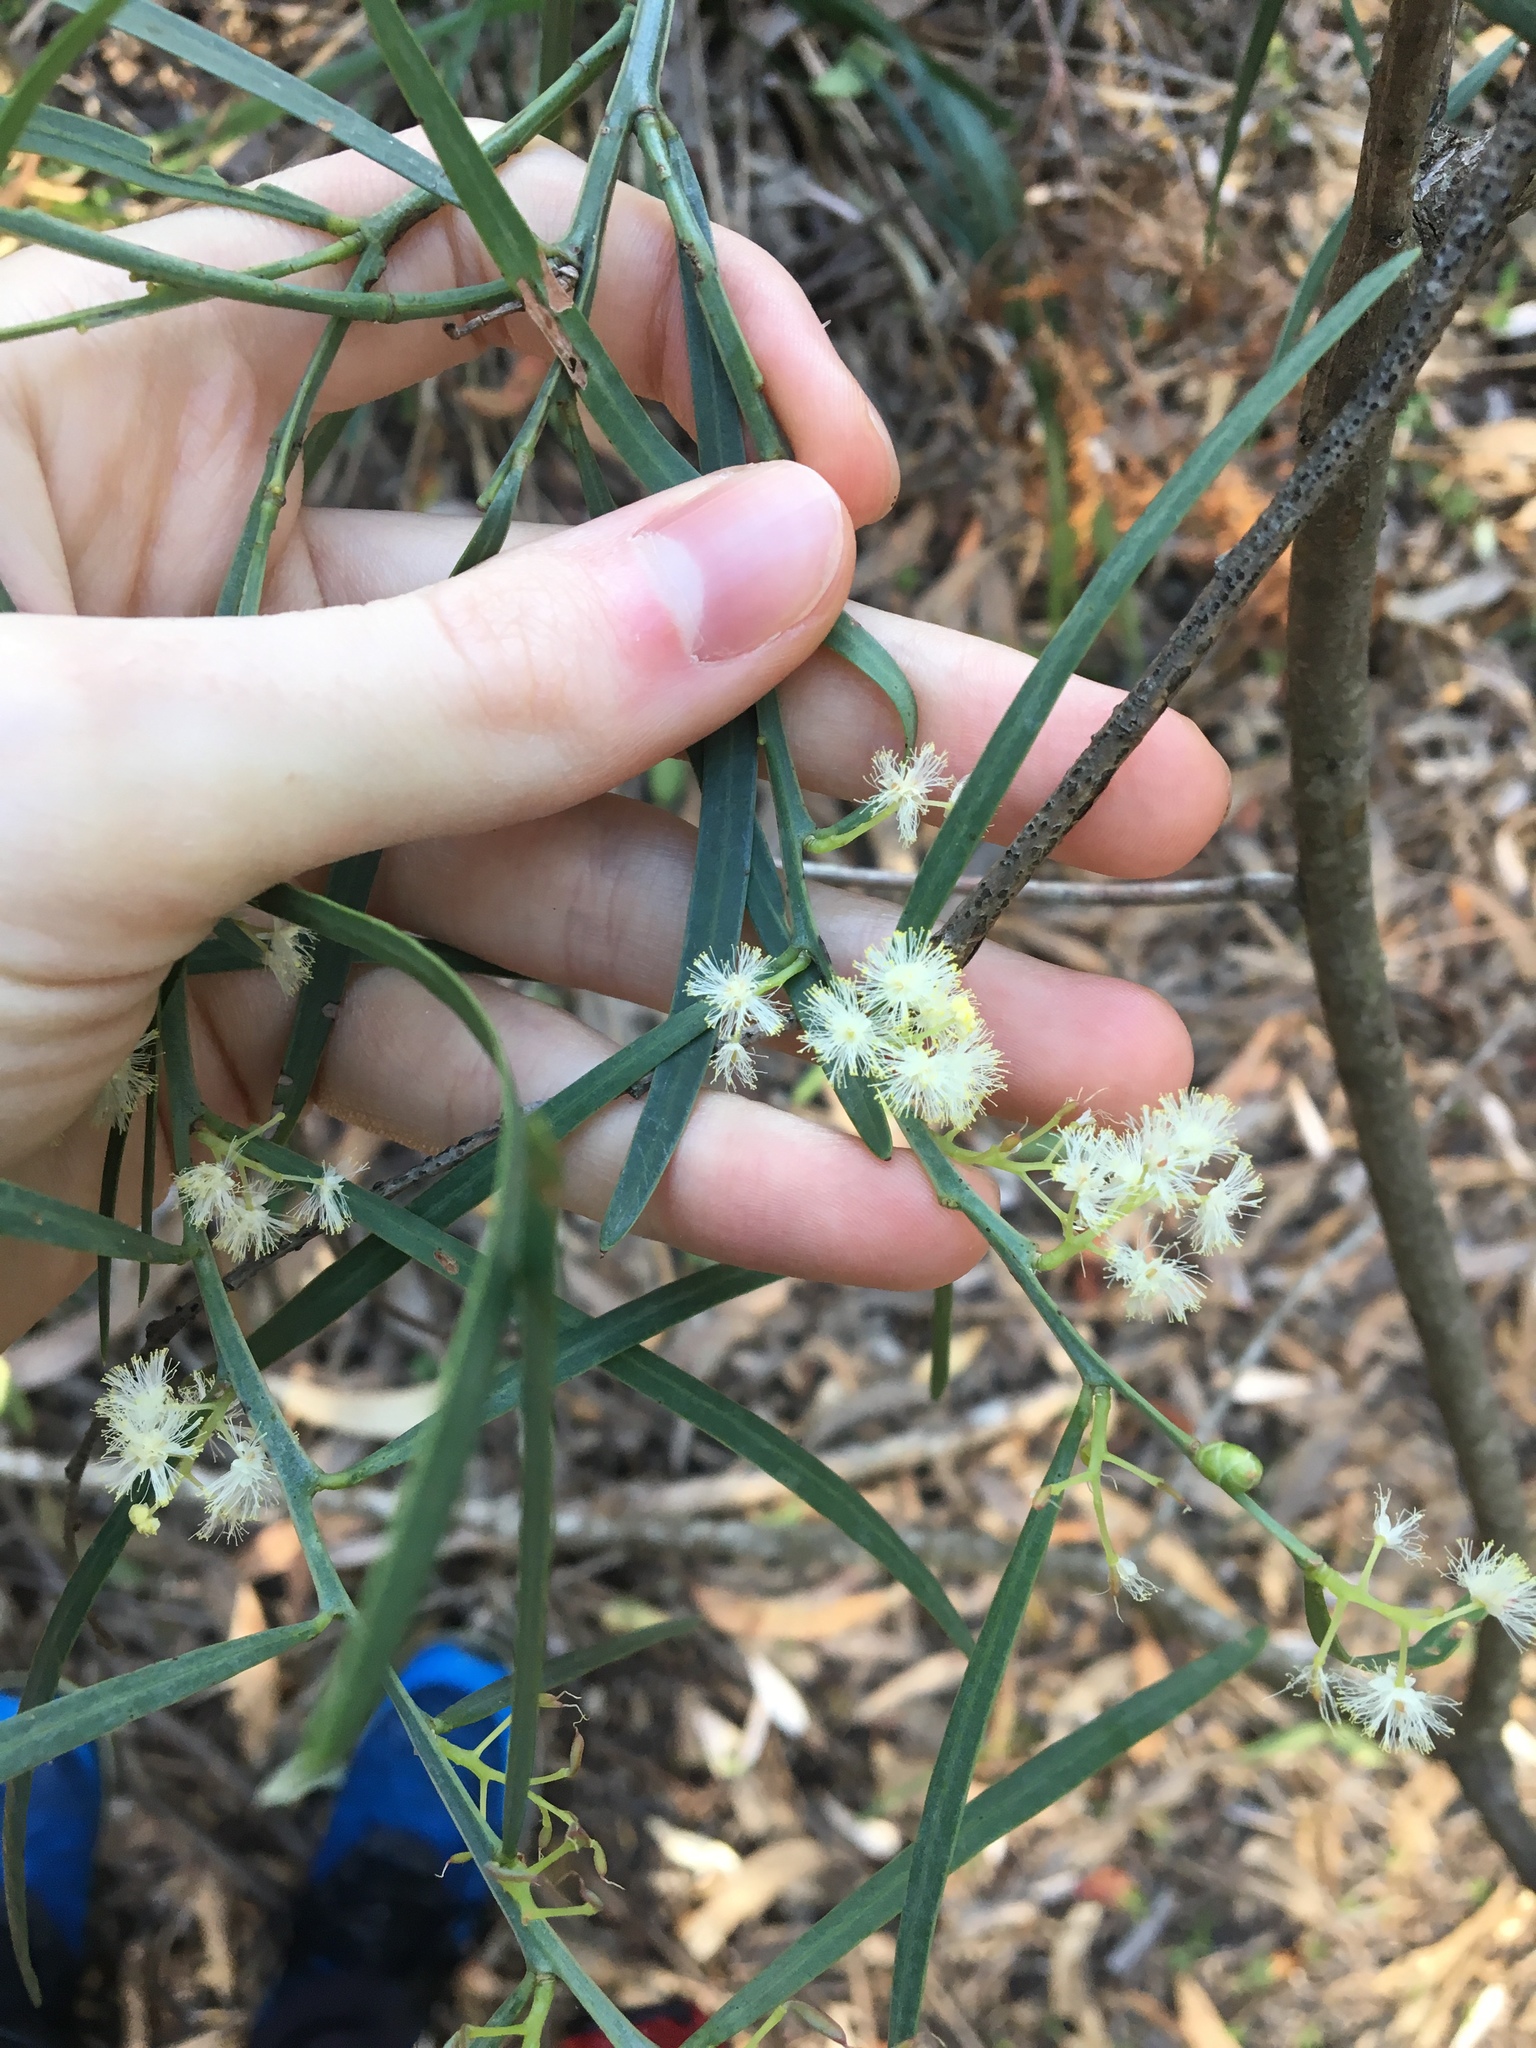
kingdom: Plantae
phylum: Tracheophyta
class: Magnoliopsida
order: Fabales
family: Fabaceae
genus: Acacia
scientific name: Acacia suaveolens
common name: Sweet acacia
